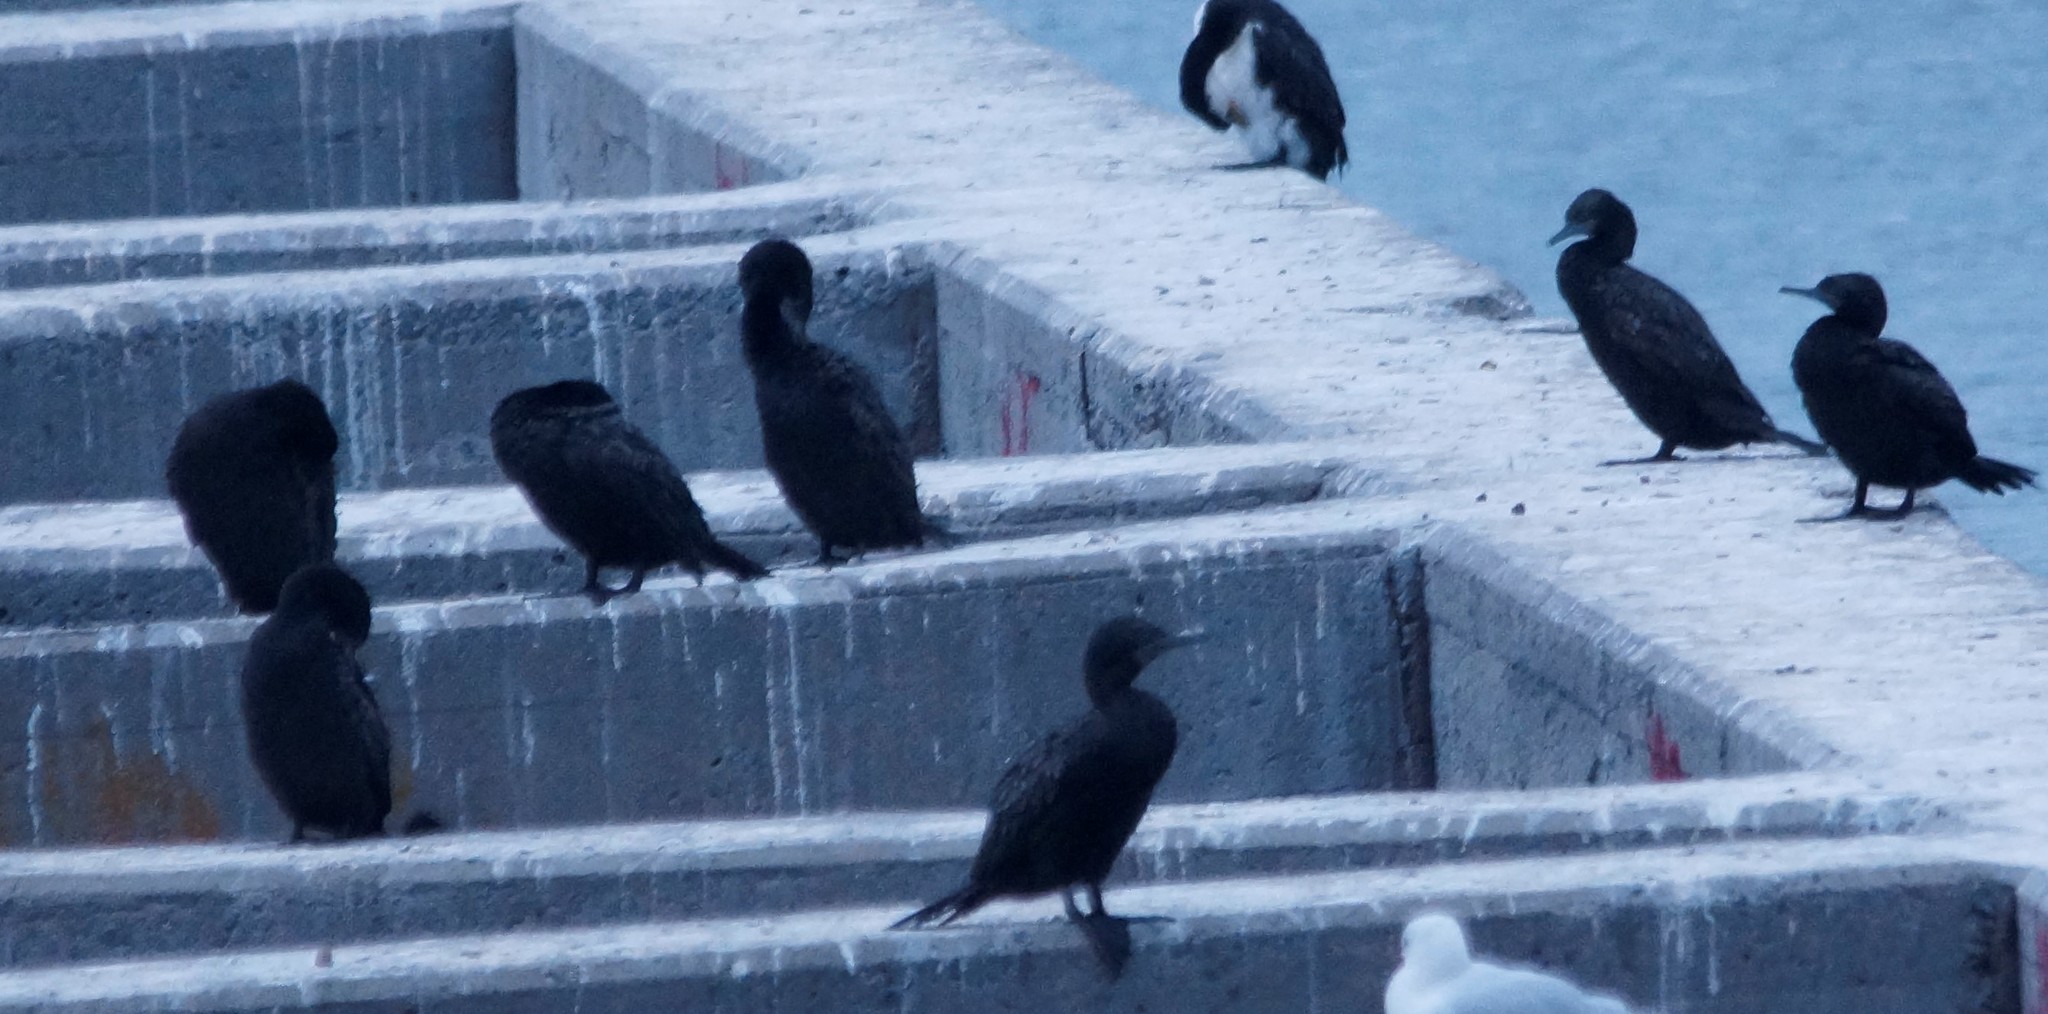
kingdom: Animalia
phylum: Chordata
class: Aves
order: Suliformes
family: Phalacrocoracidae
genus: Phalacrocorax
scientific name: Phalacrocorax sulcirostris
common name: Little black cormorant
